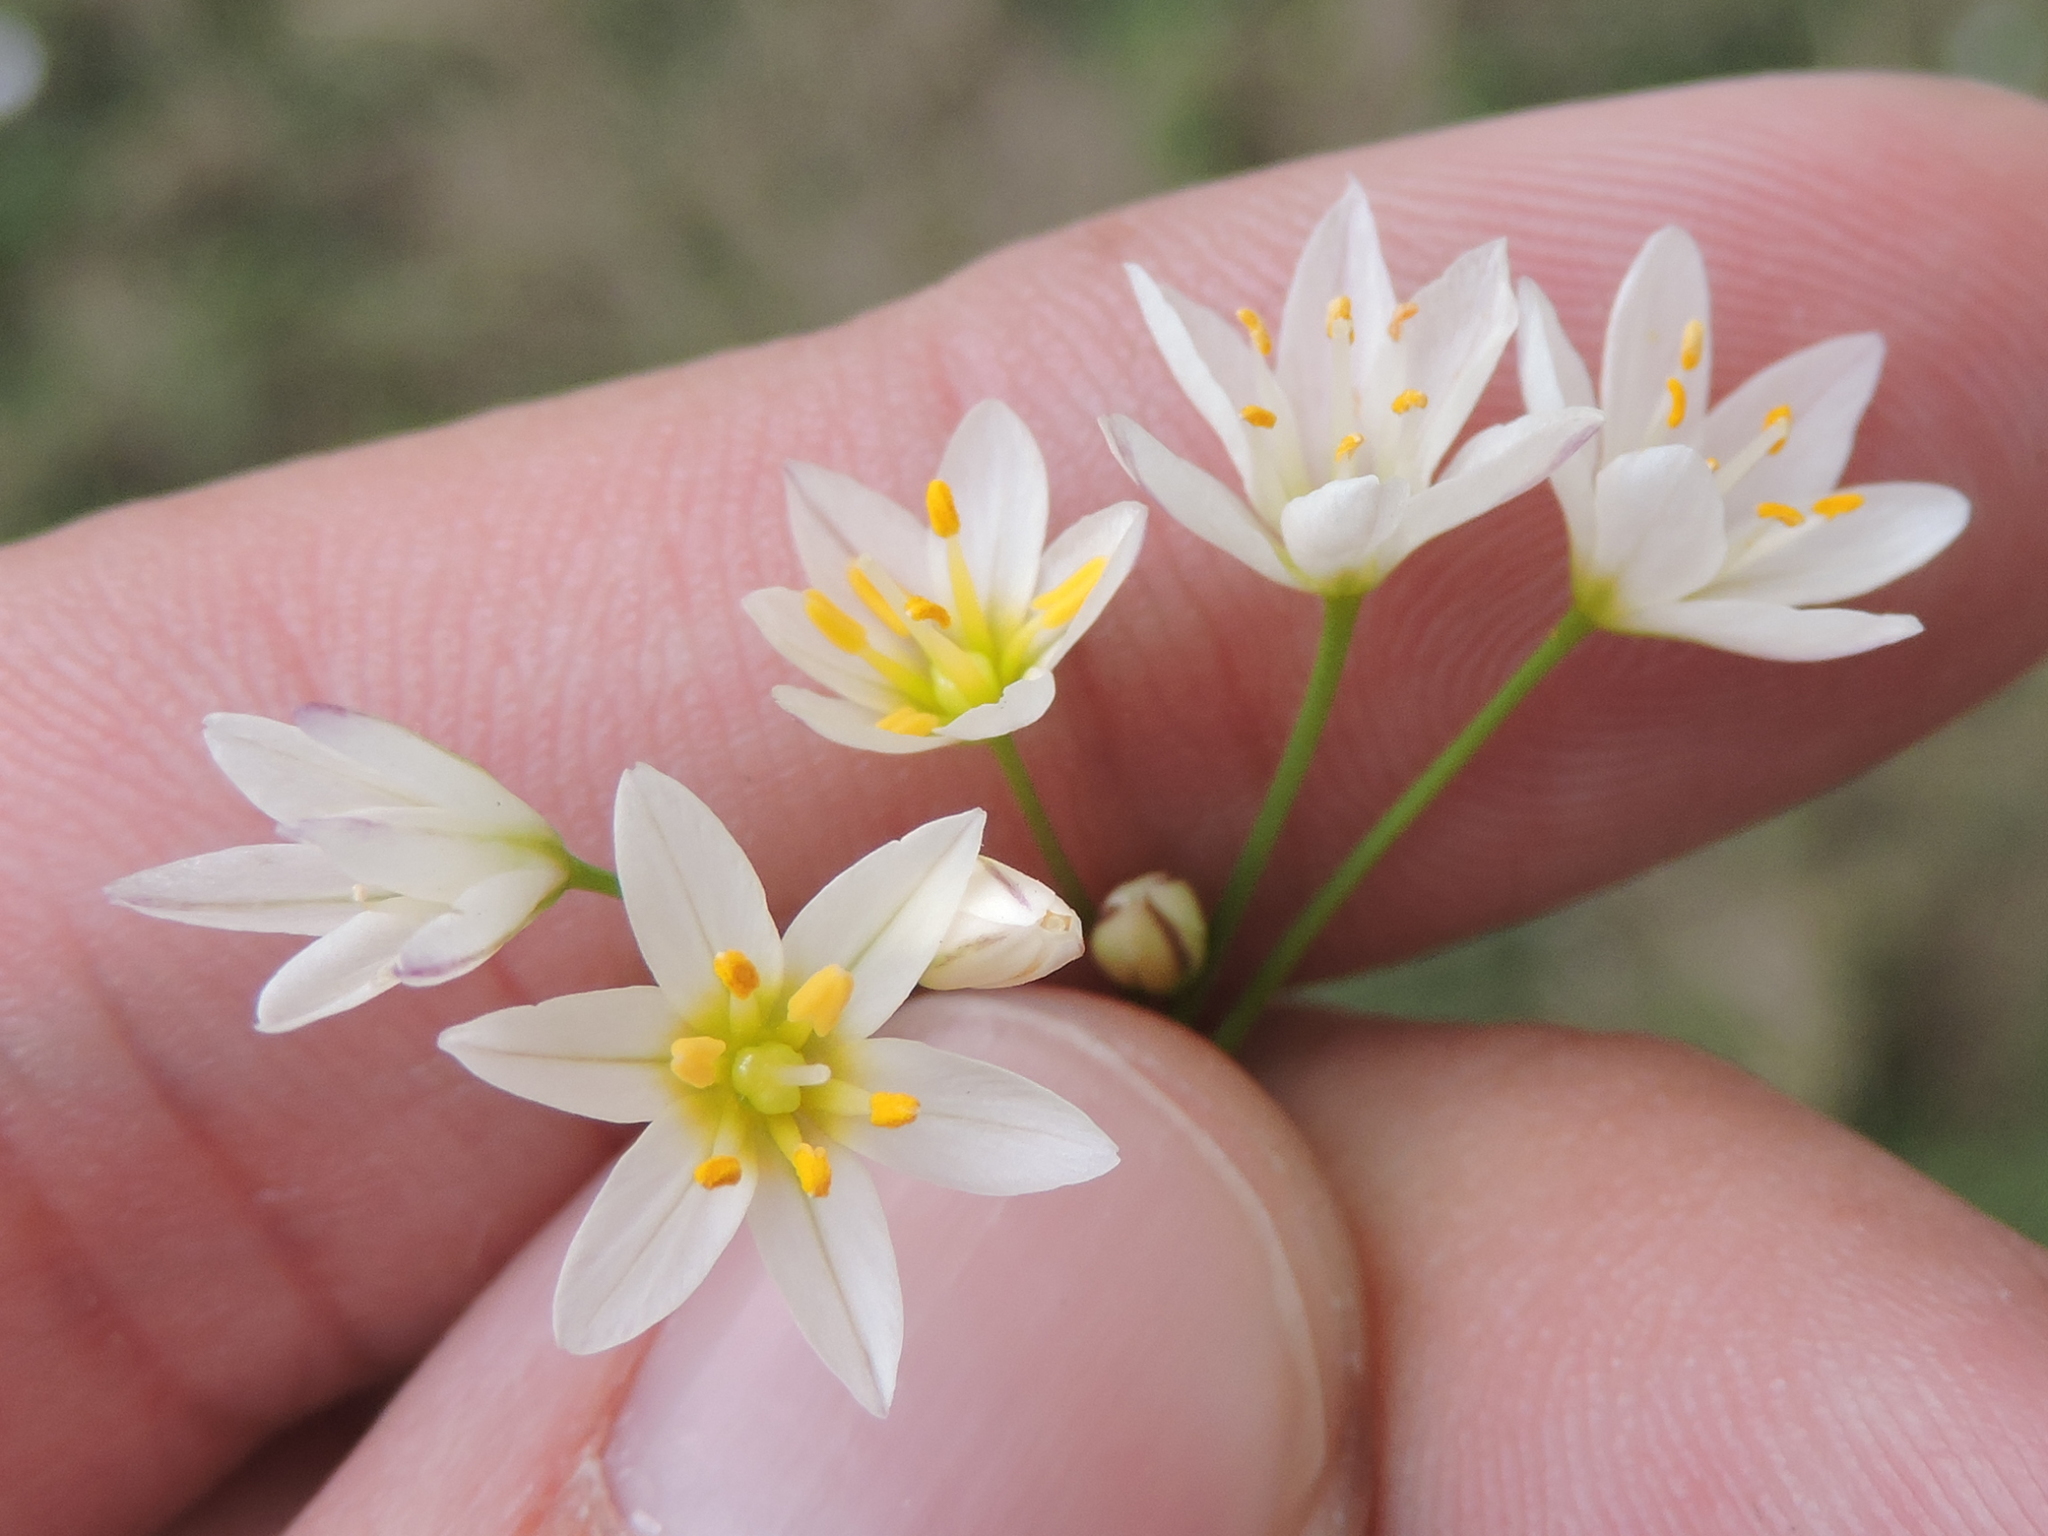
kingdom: Plantae
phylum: Tracheophyta
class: Liliopsida
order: Asparagales
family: Amaryllidaceae
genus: Nothoscordum
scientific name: Nothoscordum bivalve
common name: Crow-poison
